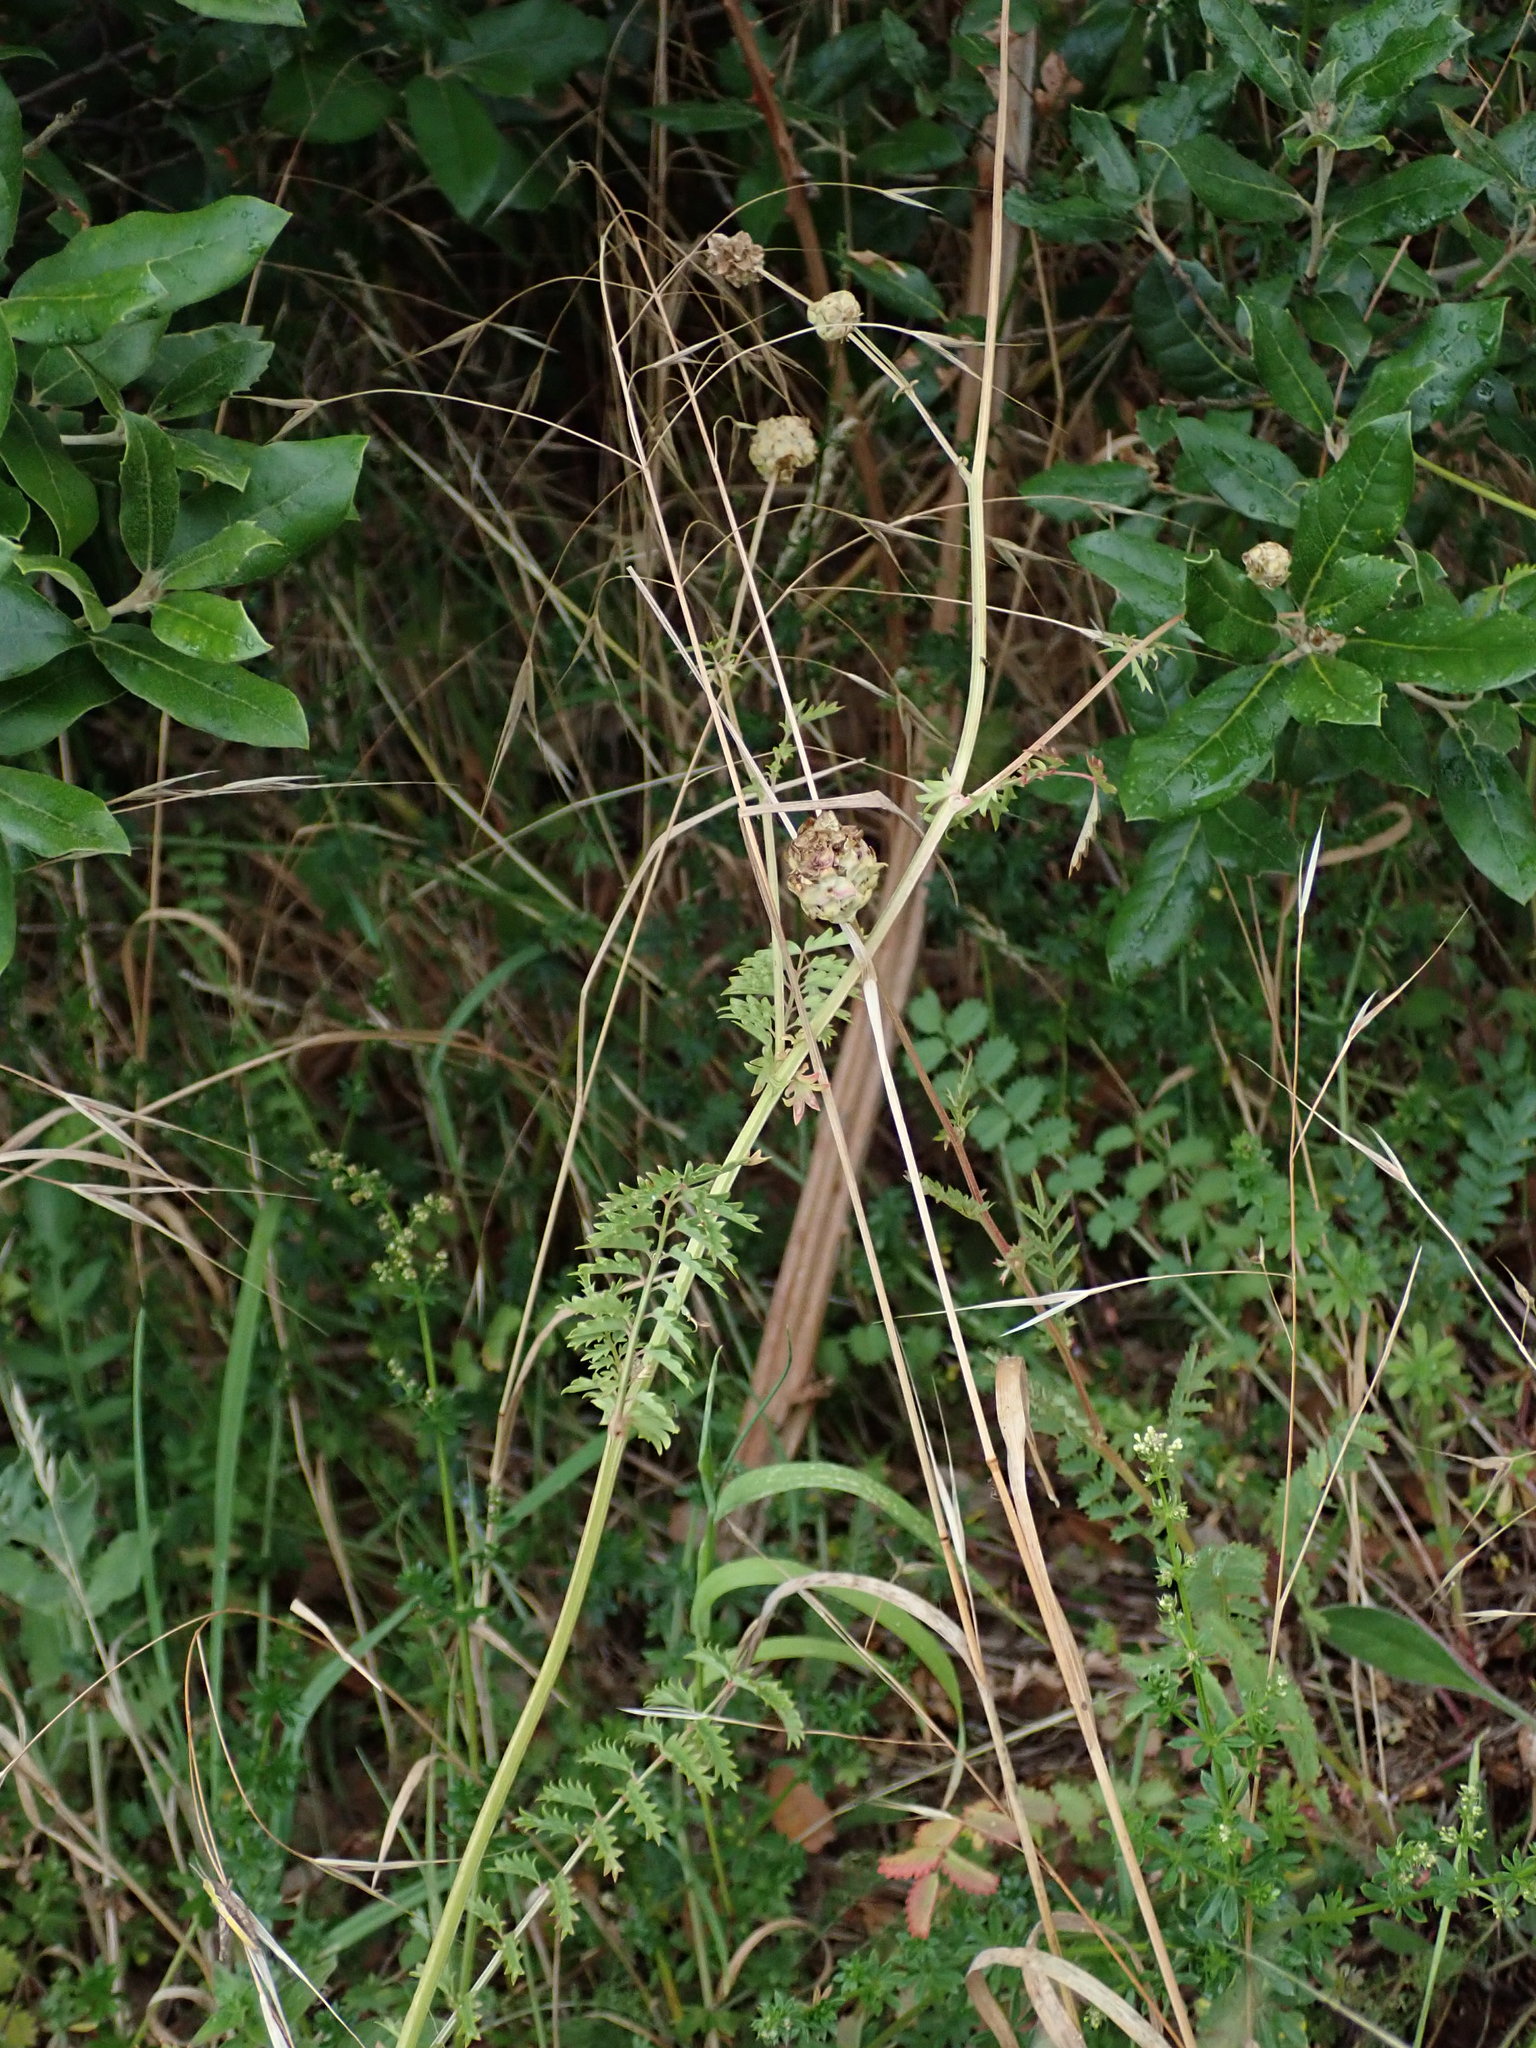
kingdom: Plantae
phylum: Tracheophyta
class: Magnoliopsida
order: Rosales
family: Rosaceae
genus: Poterium
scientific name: Poterium sanguisorba
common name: Salad burnet
